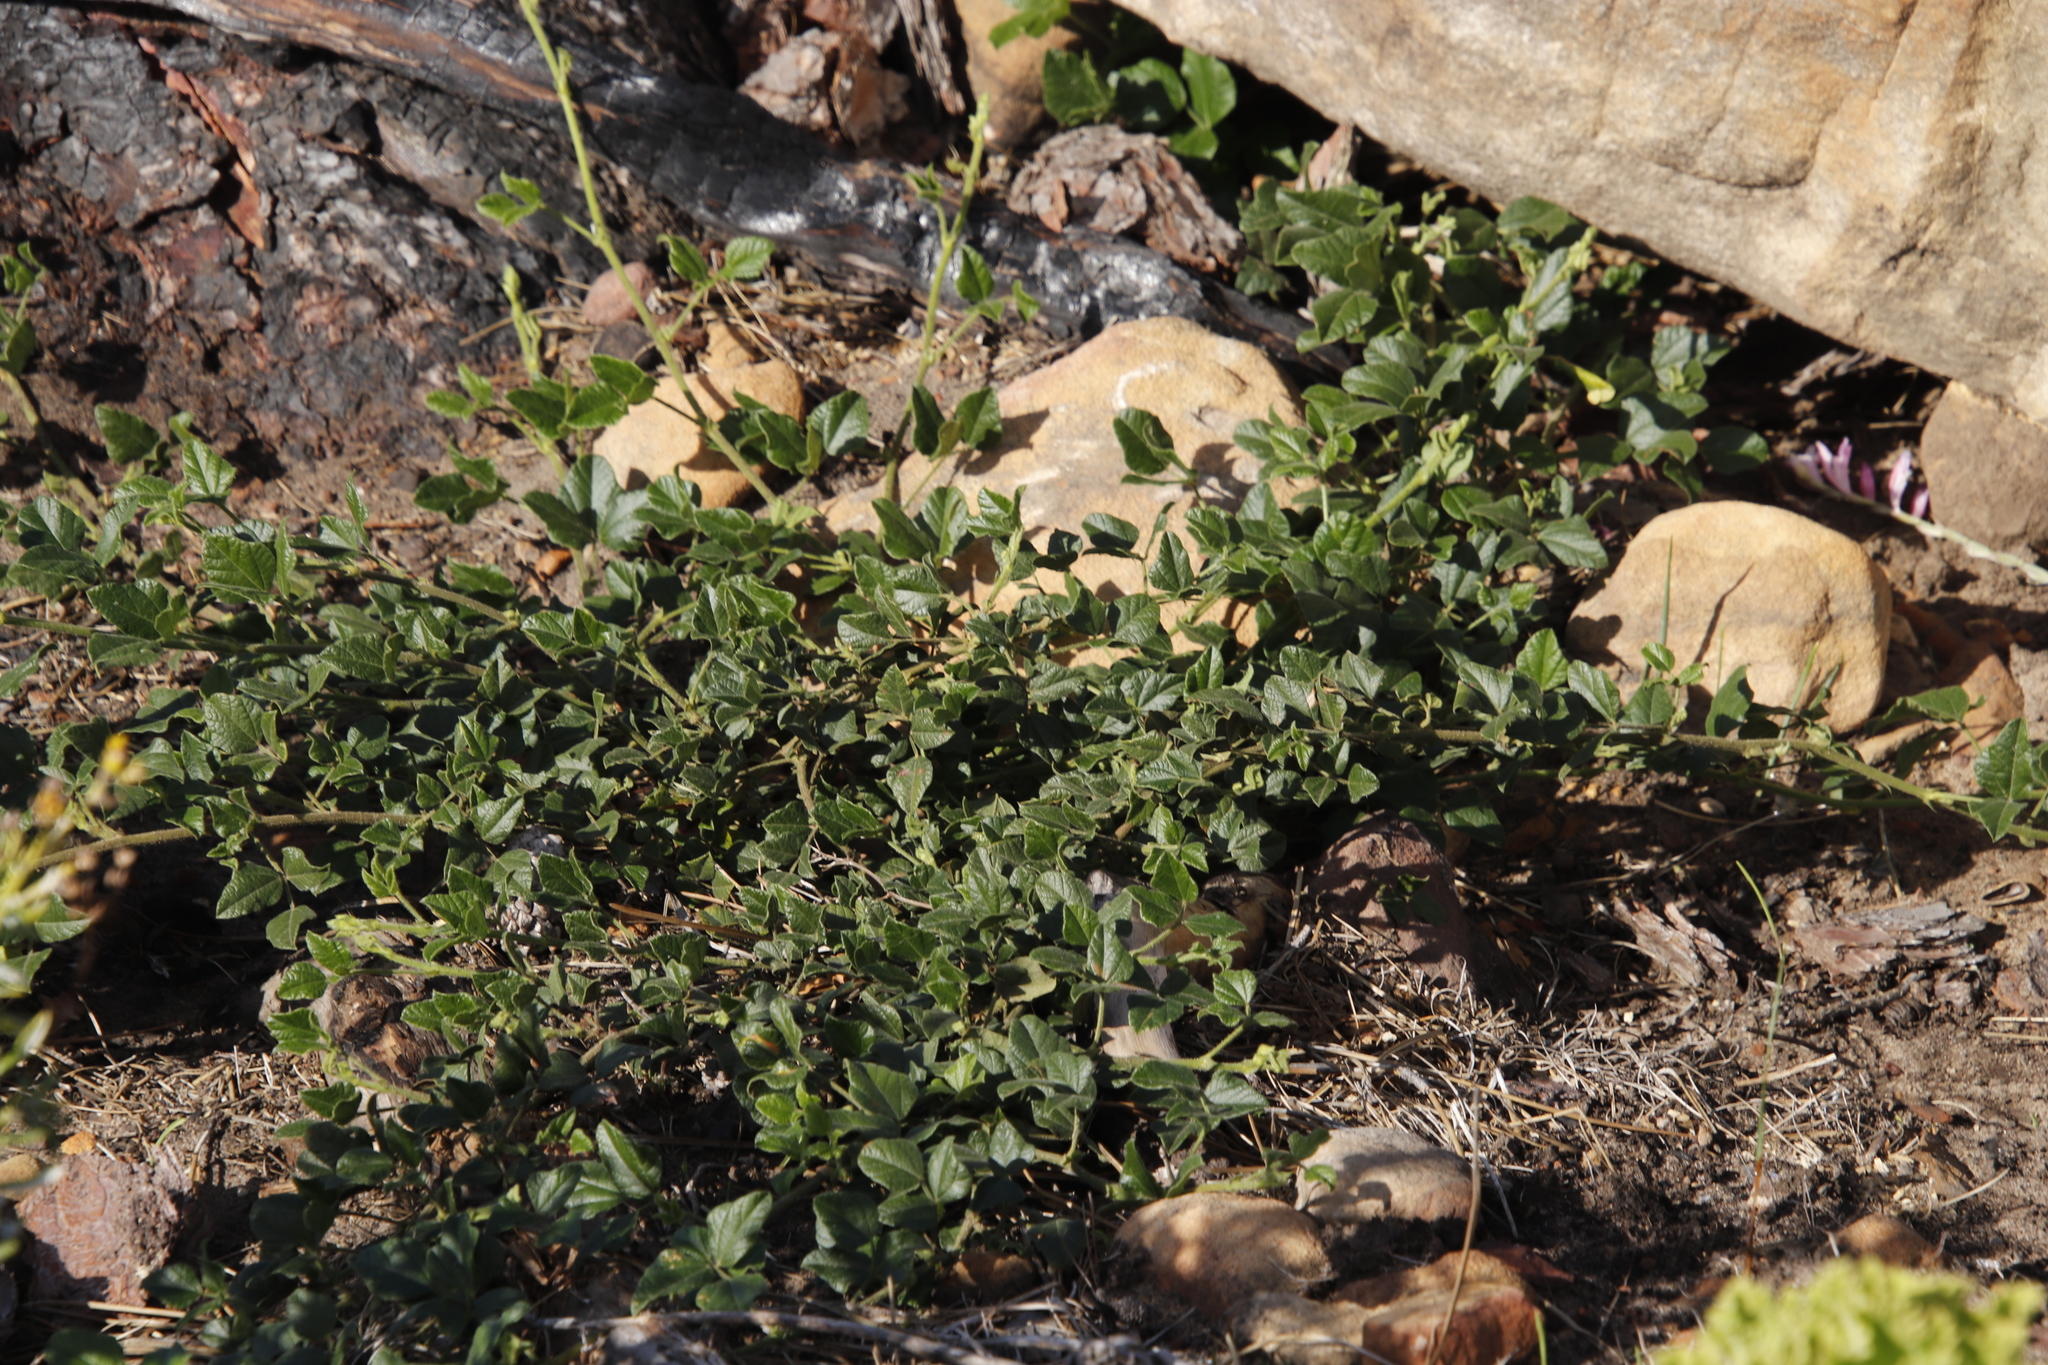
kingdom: Plantae
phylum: Tracheophyta
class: Magnoliopsida
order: Fabales
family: Fabaceae
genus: Bolusafra
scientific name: Bolusafra bituminosa
